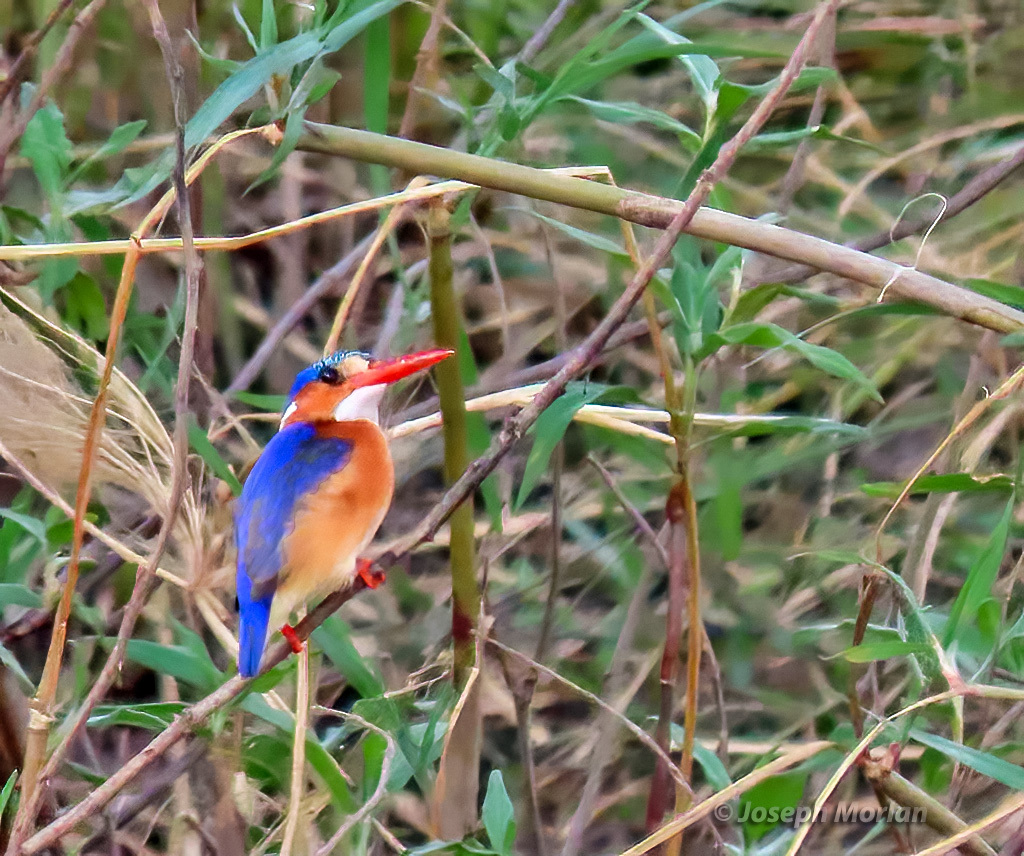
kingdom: Animalia
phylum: Chordata
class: Aves
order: Coraciiformes
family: Alcedinidae
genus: Corythornis
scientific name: Corythornis cristatus
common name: Malachite kingfisher
